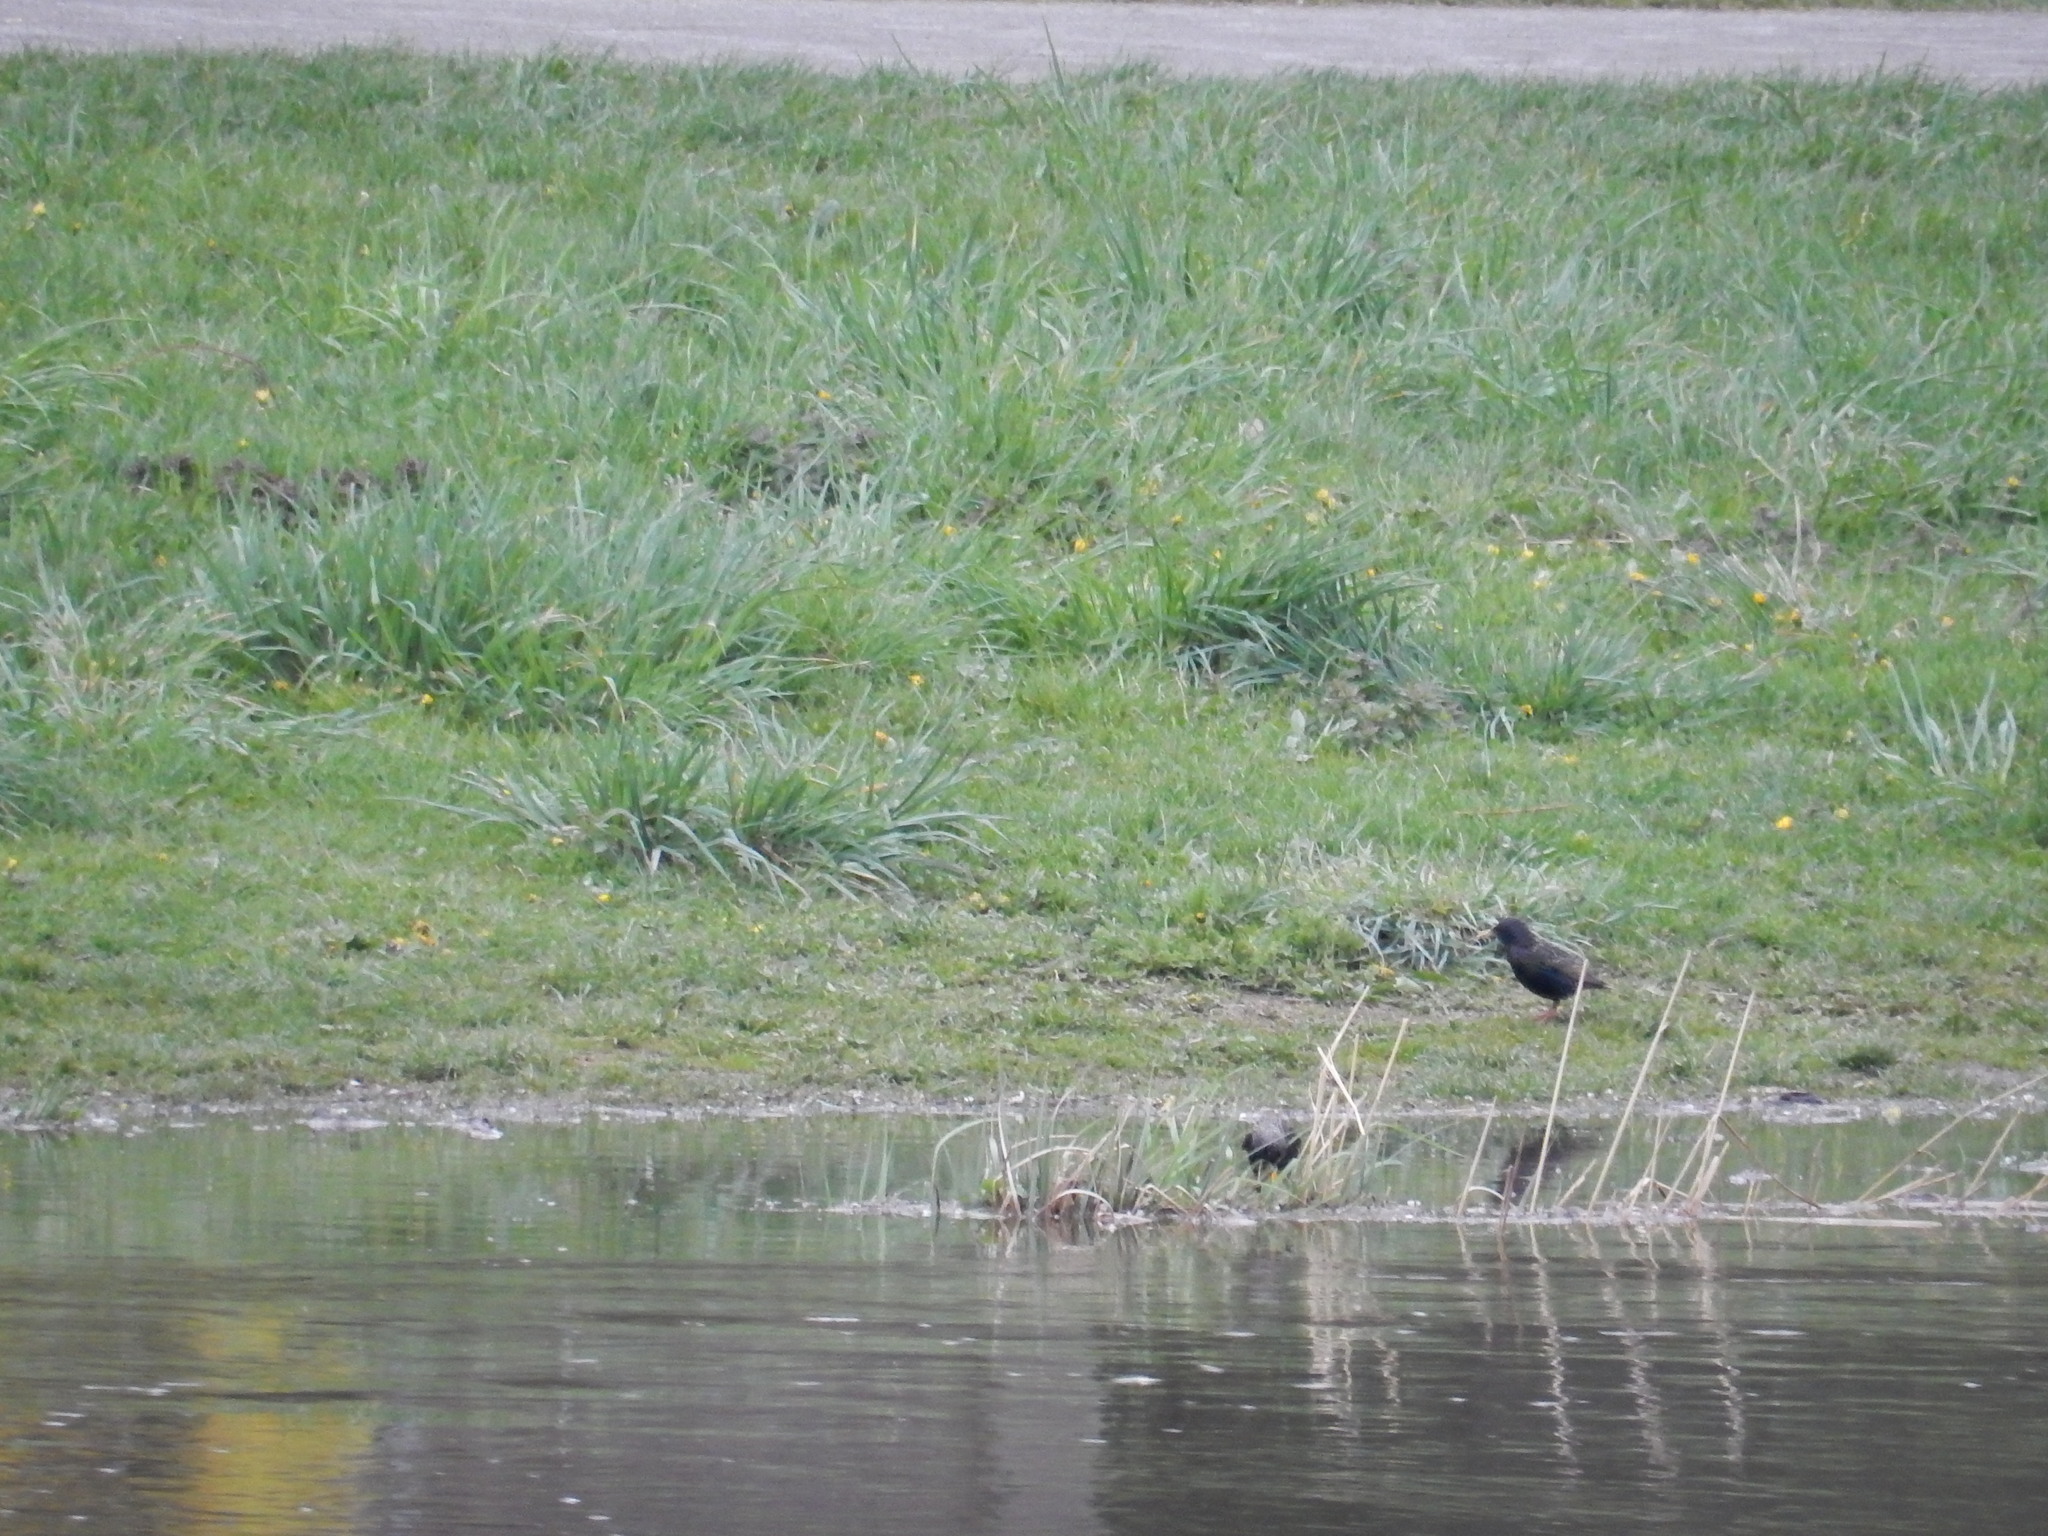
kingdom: Animalia
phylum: Chordata
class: Aves
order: Passeriformes
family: Sturnidae
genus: Sturnus
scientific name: Sturnus vulgaris
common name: Common starling
